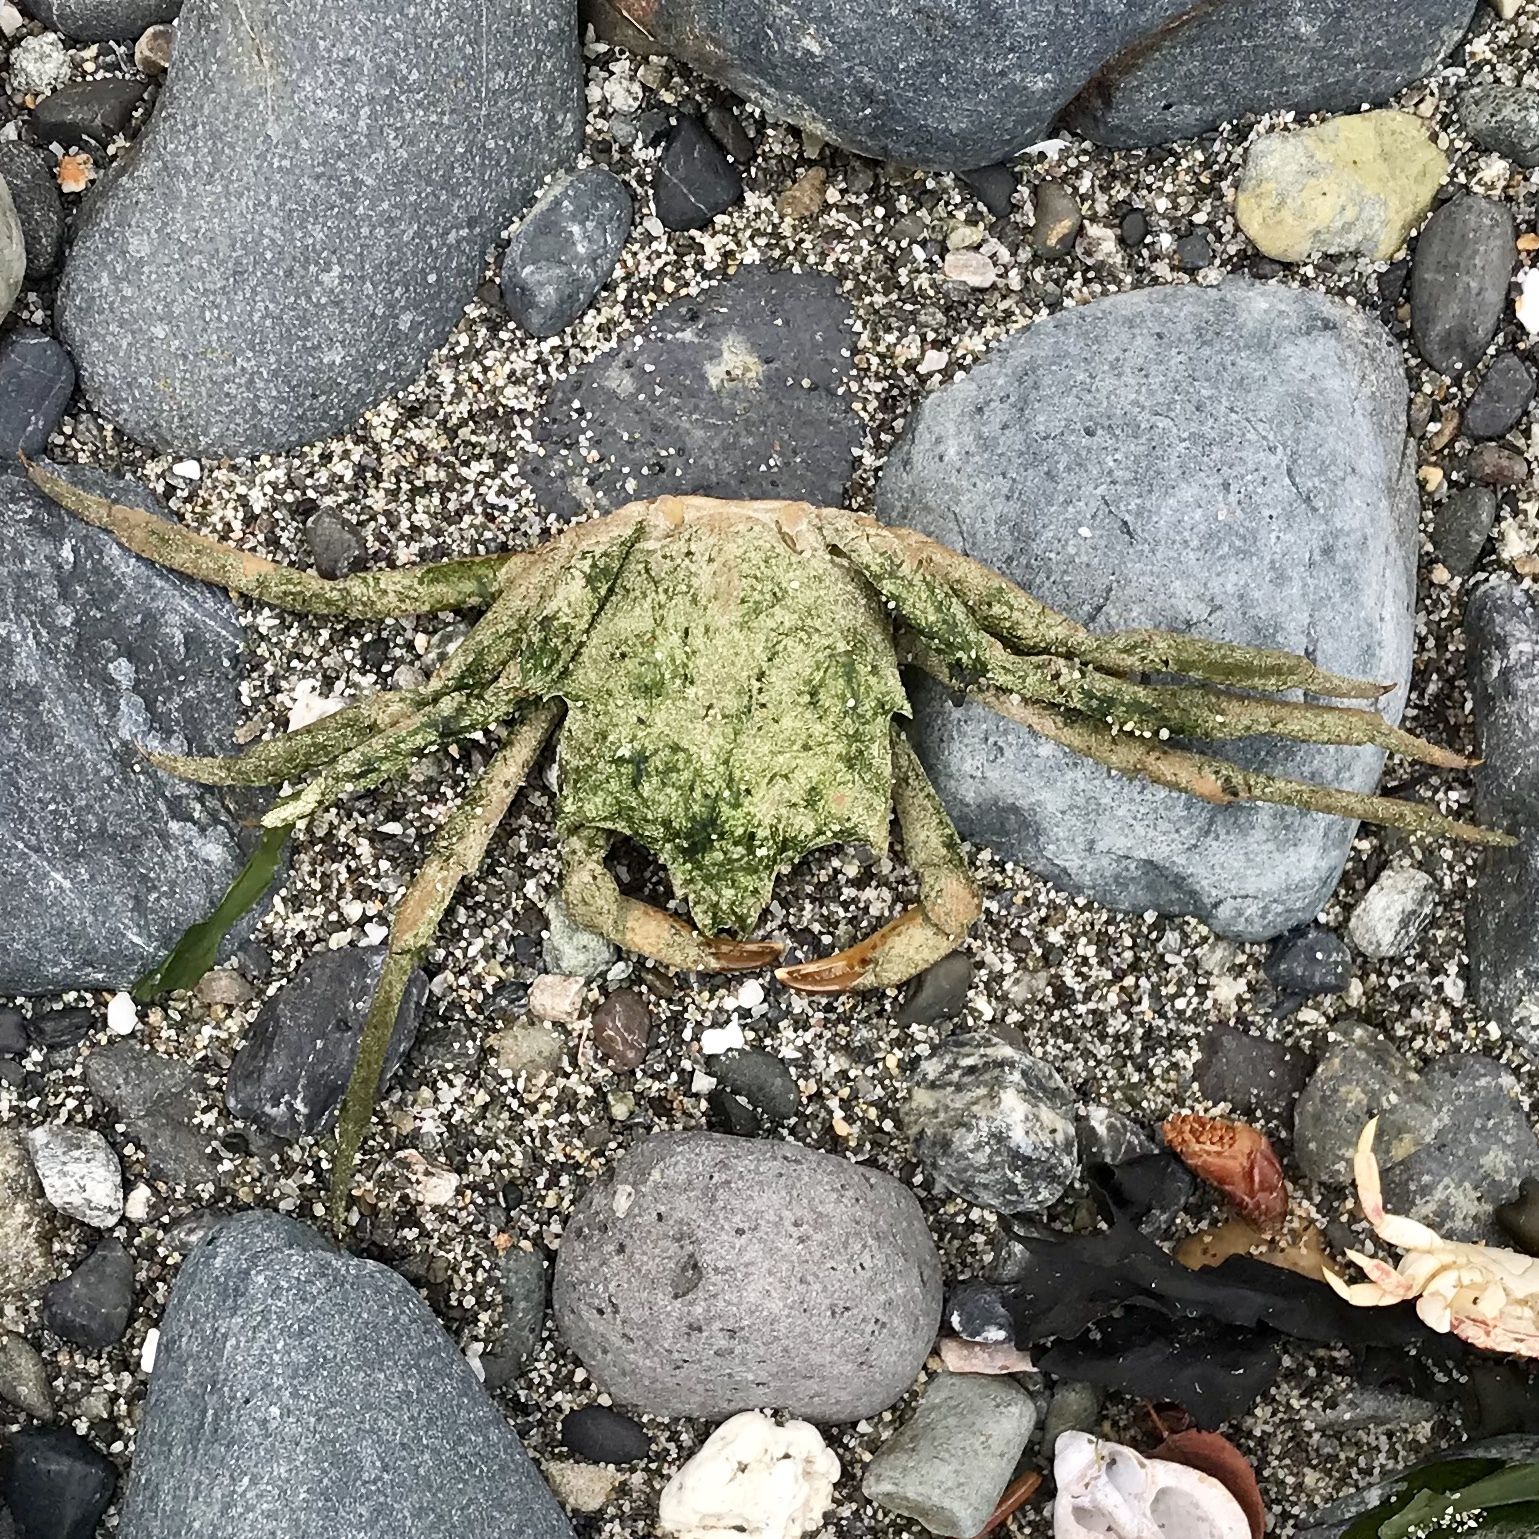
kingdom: Animalia
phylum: Arthropoda
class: Malacostraca
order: Decapoda
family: Epialtidae
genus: Pugettia
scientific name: Pugettia producta
